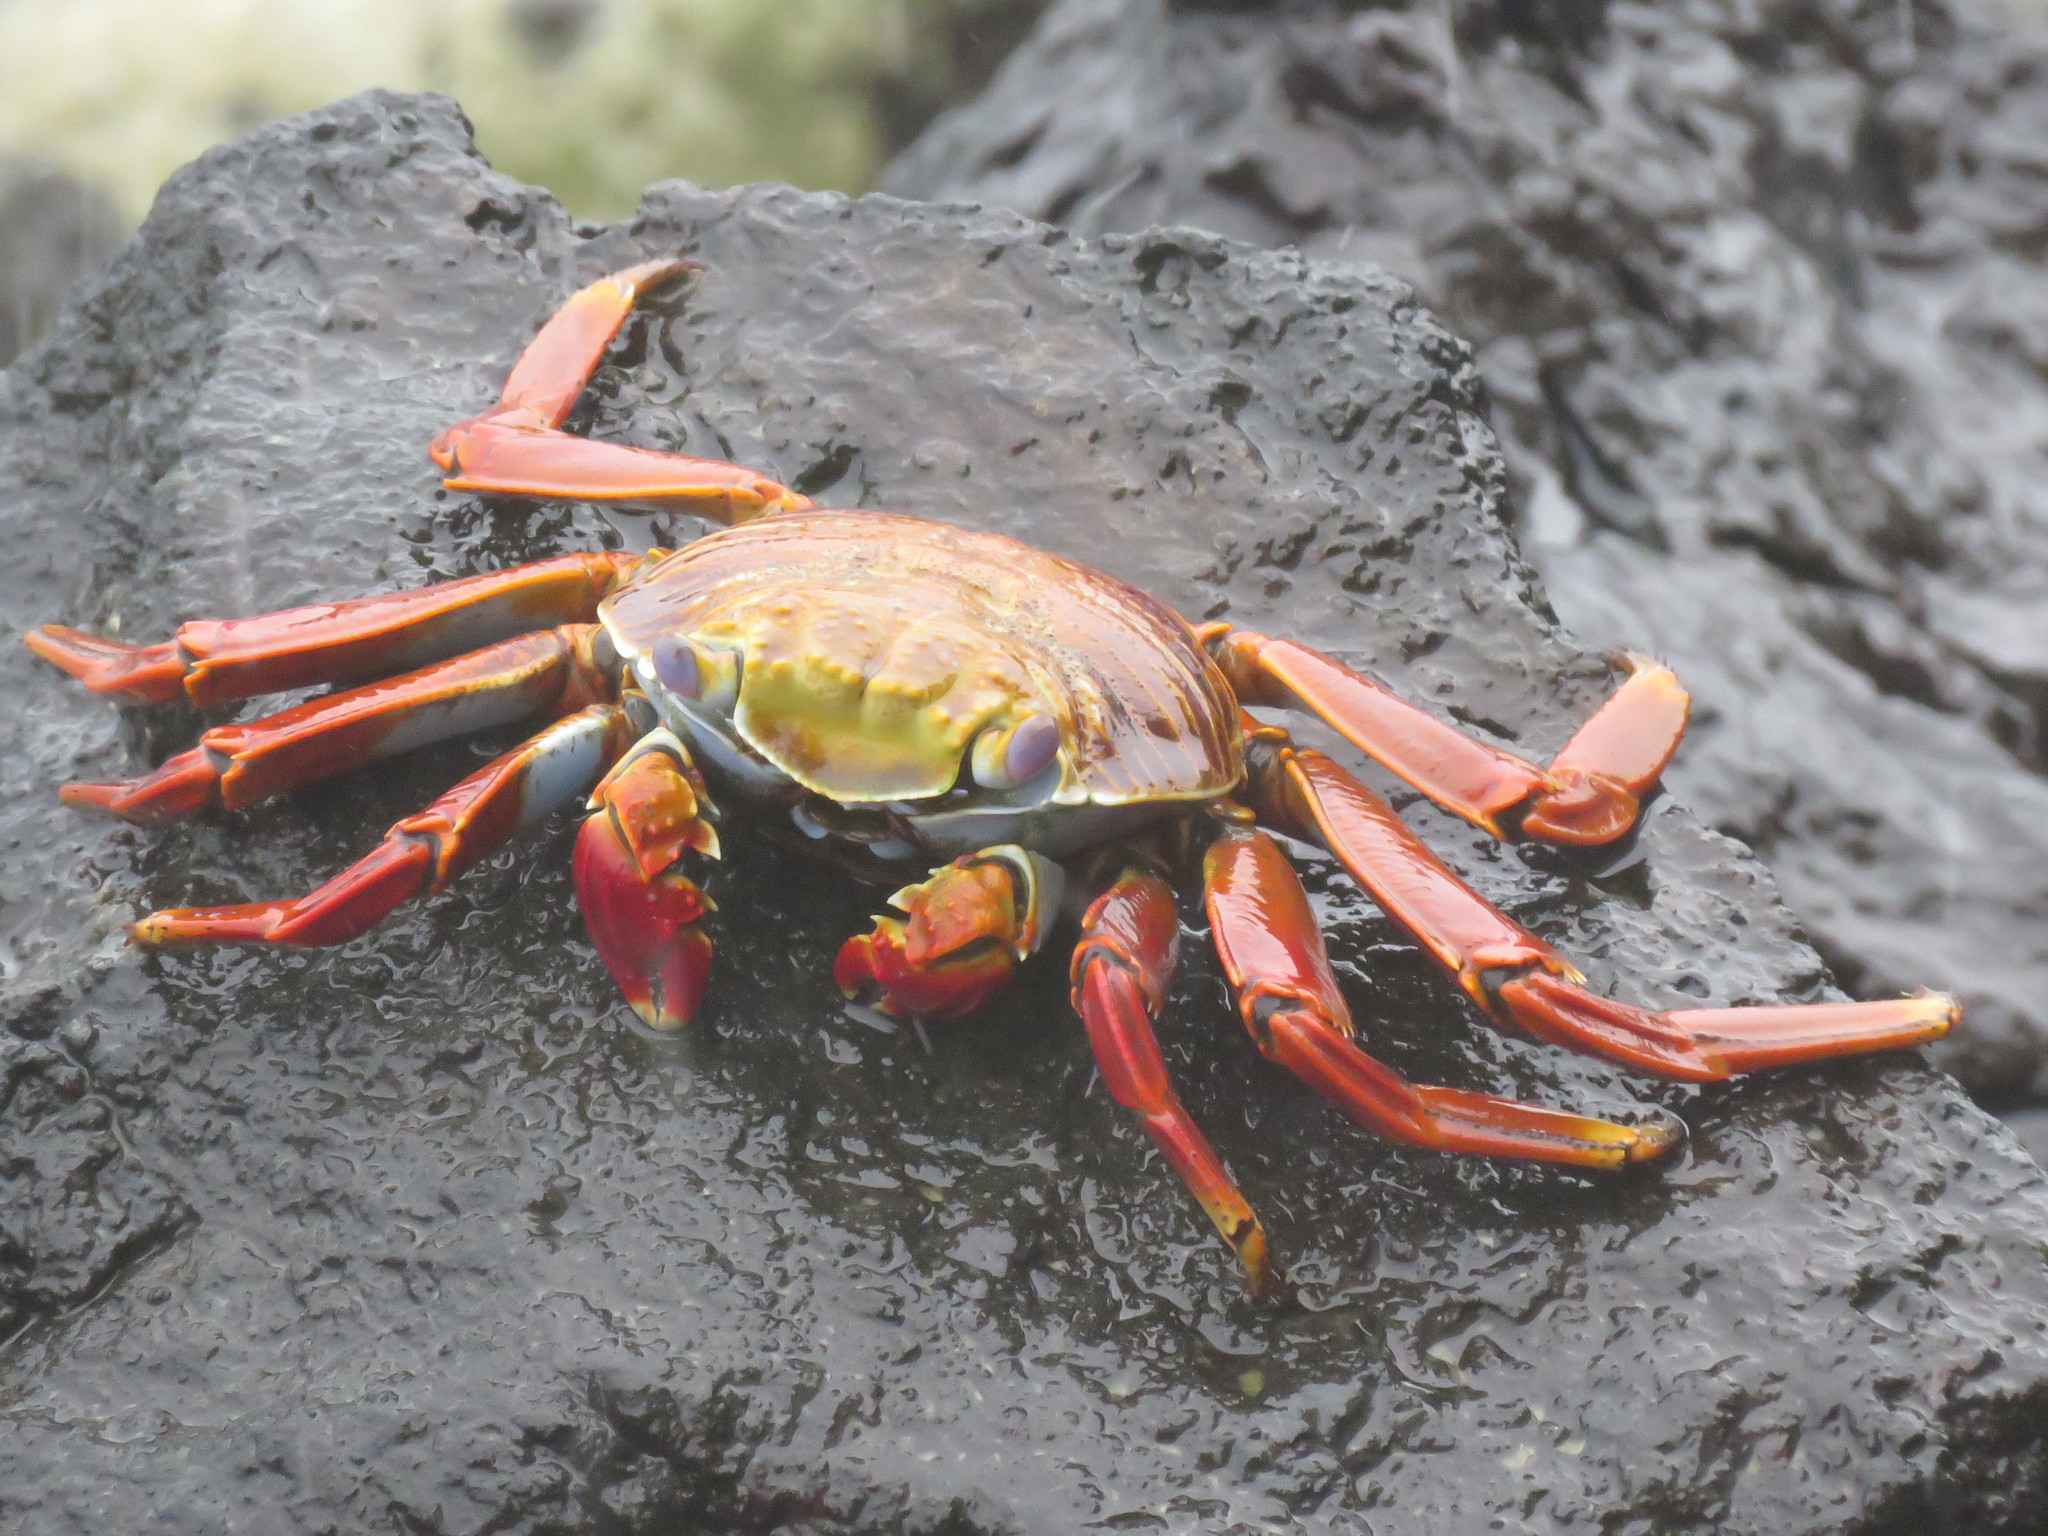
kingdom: Animalia
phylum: Arthropoda
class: Malacostraca
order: Decapoda
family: Grapsidae
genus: Grapsus
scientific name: Grapsus grapsus
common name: Sally lightfoot
